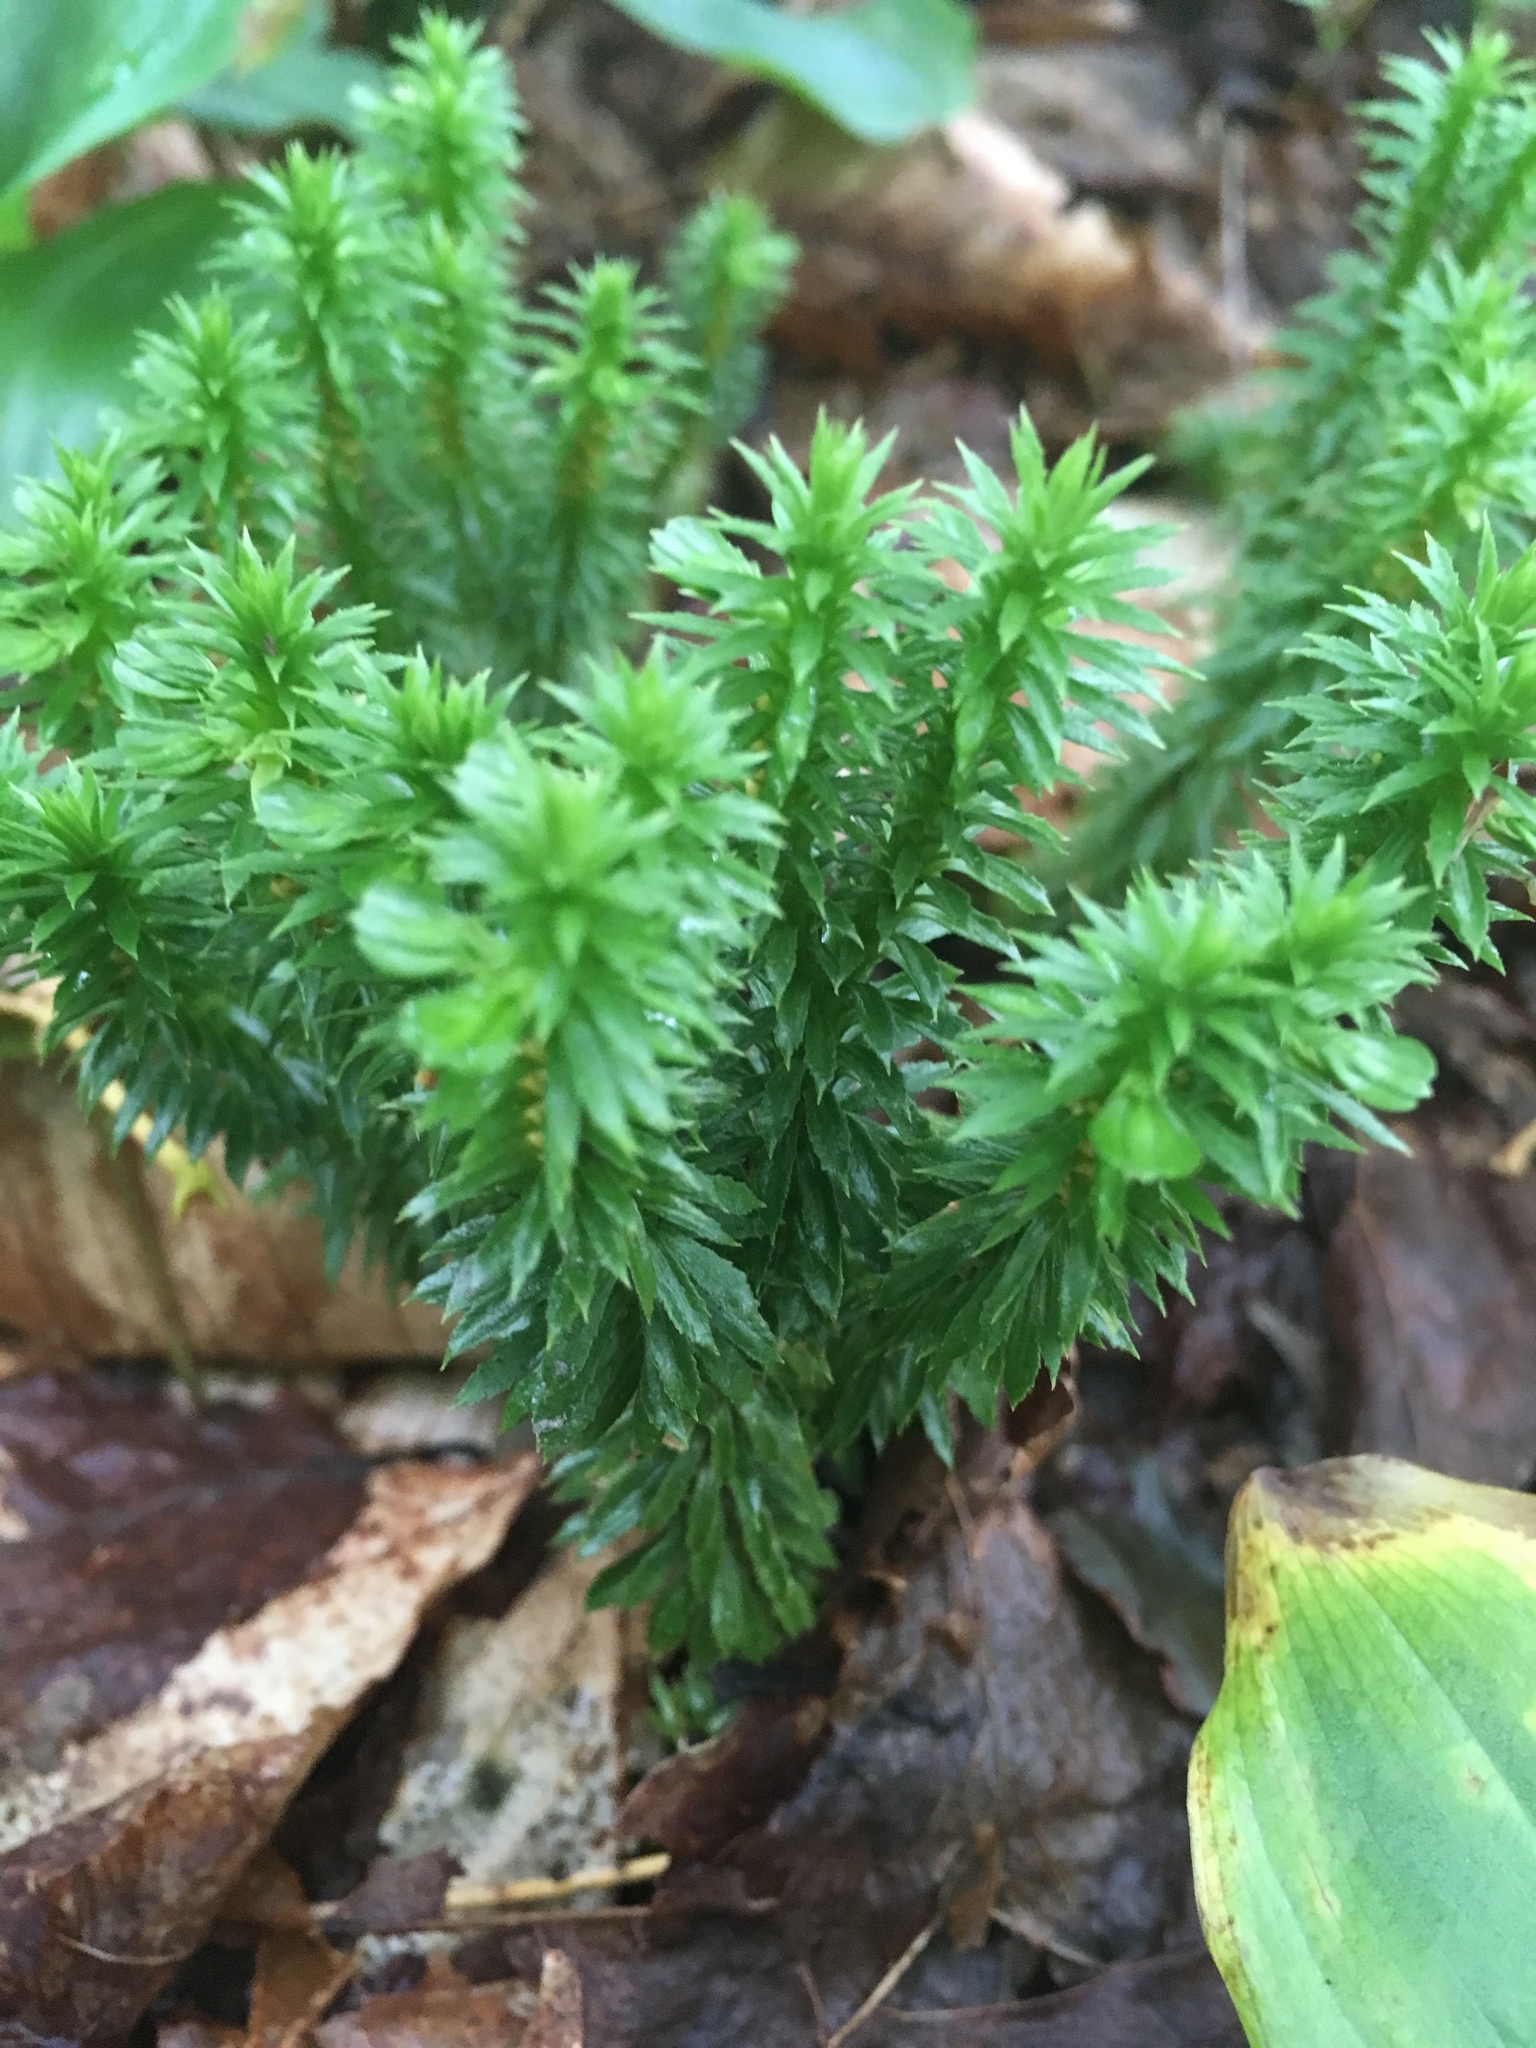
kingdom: Plantae
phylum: Tracheophyta
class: Lycopodiopsida
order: Lycopodiales
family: Lycopodiaceae
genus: Huperzia
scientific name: Huperzia lucidula
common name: Shining clubmoss
